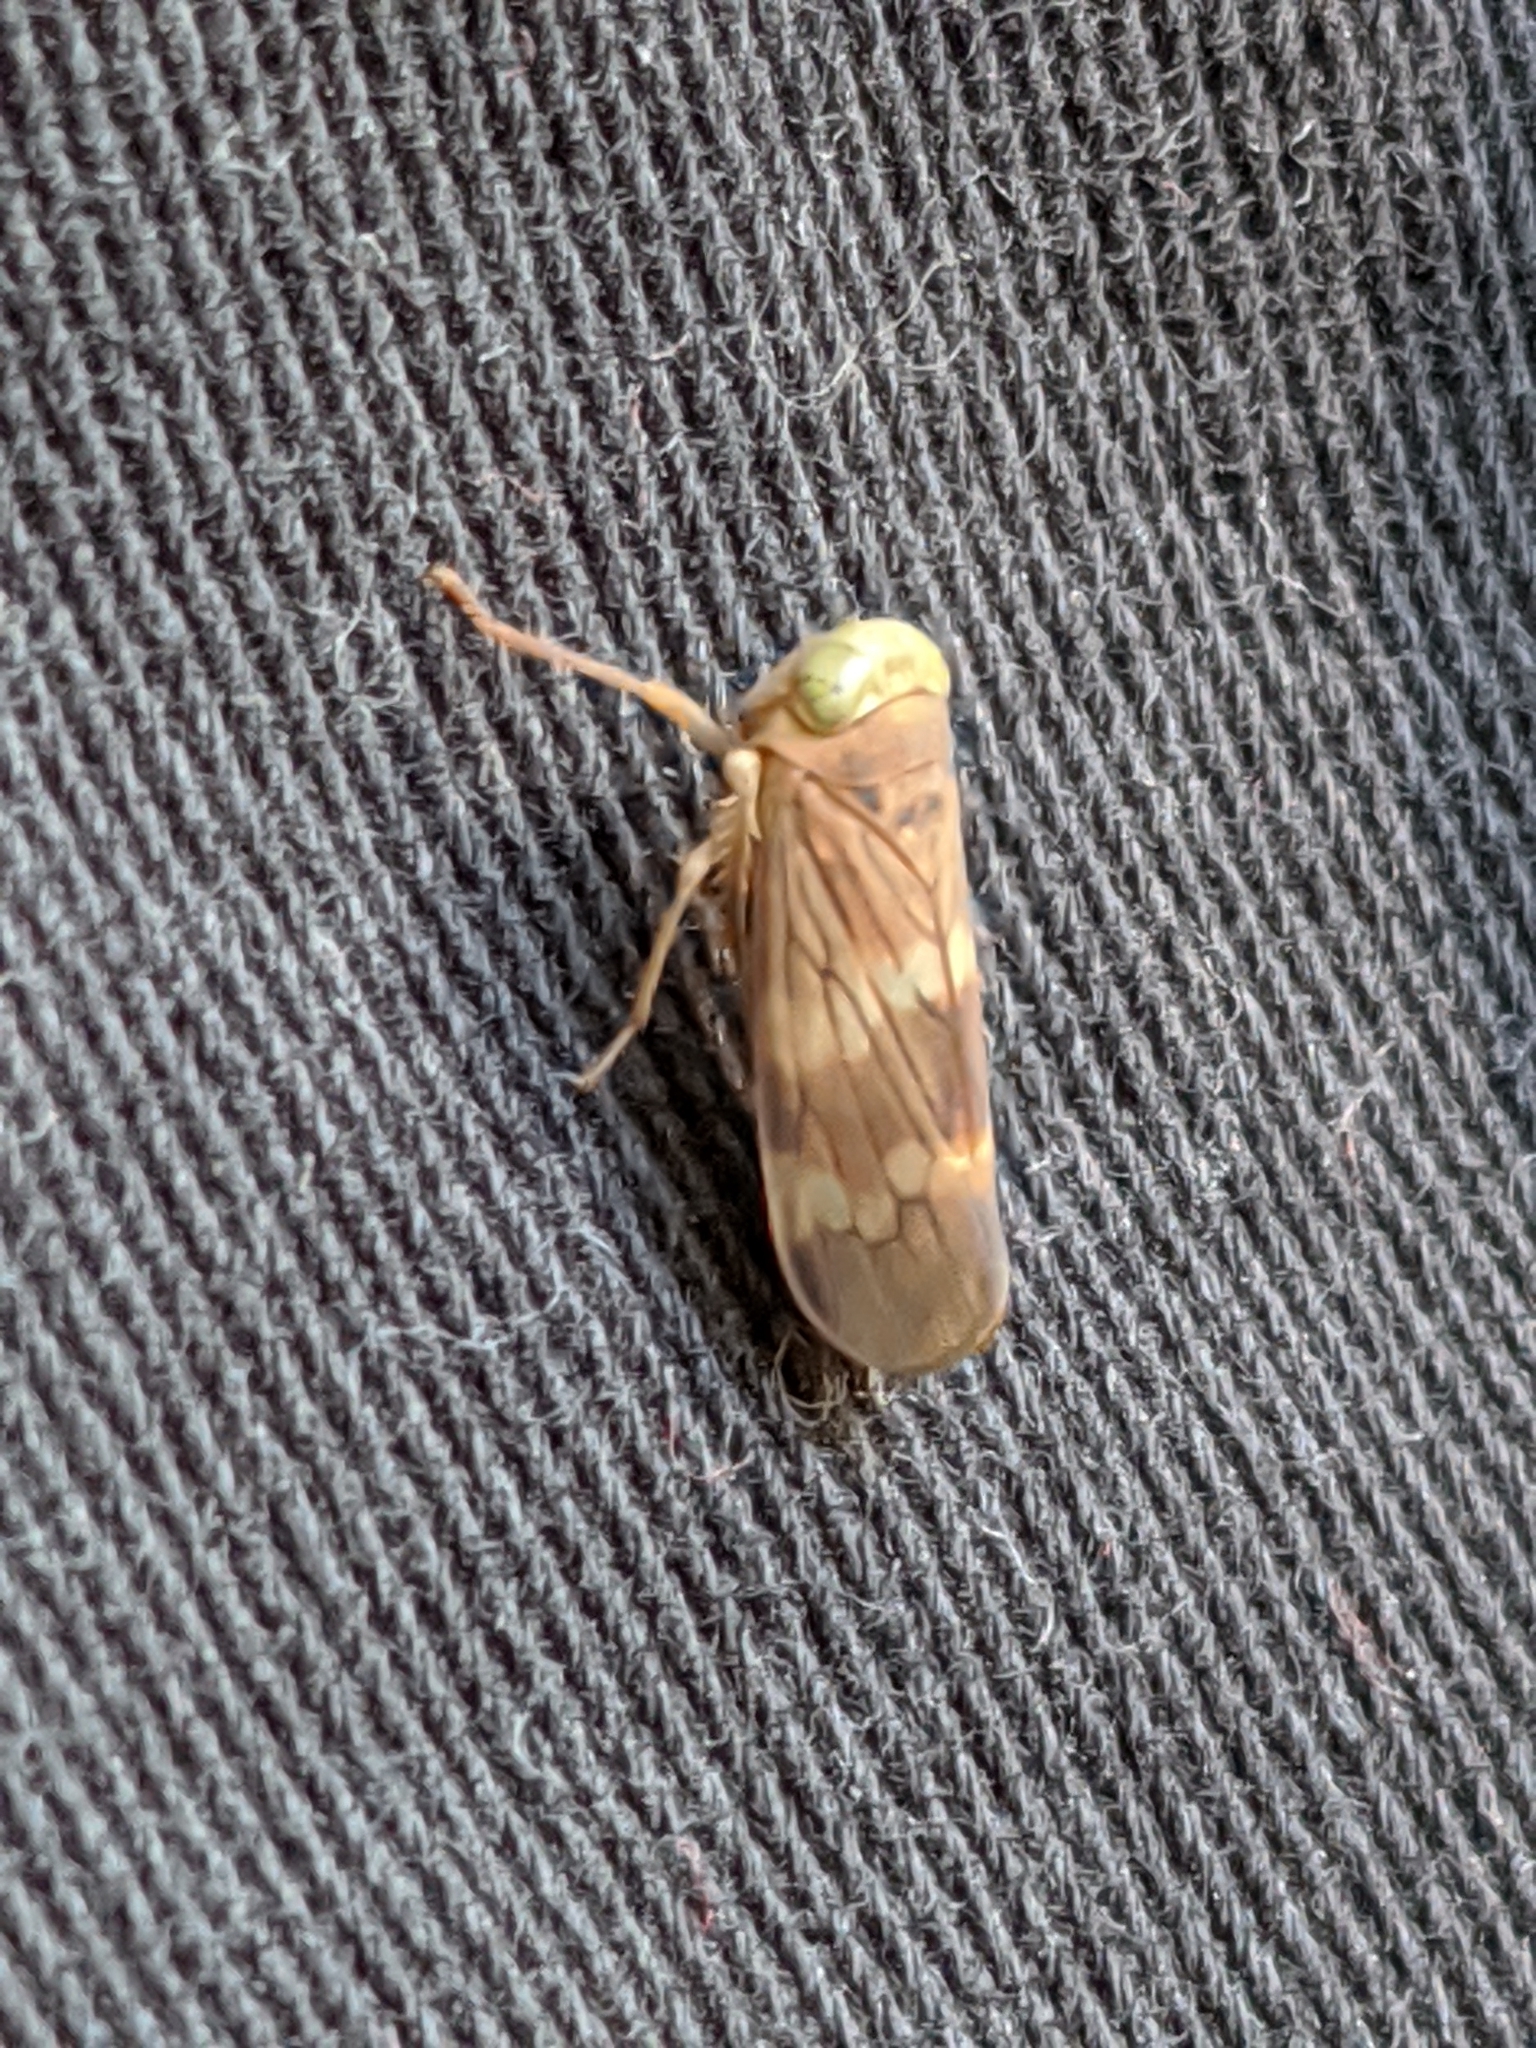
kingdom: Animalia
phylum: Arthropoda
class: Insecta
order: Hemiptera
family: Cicadellidae
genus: Jikradia
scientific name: Jikradia olitoria
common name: Coppery leafhopper
